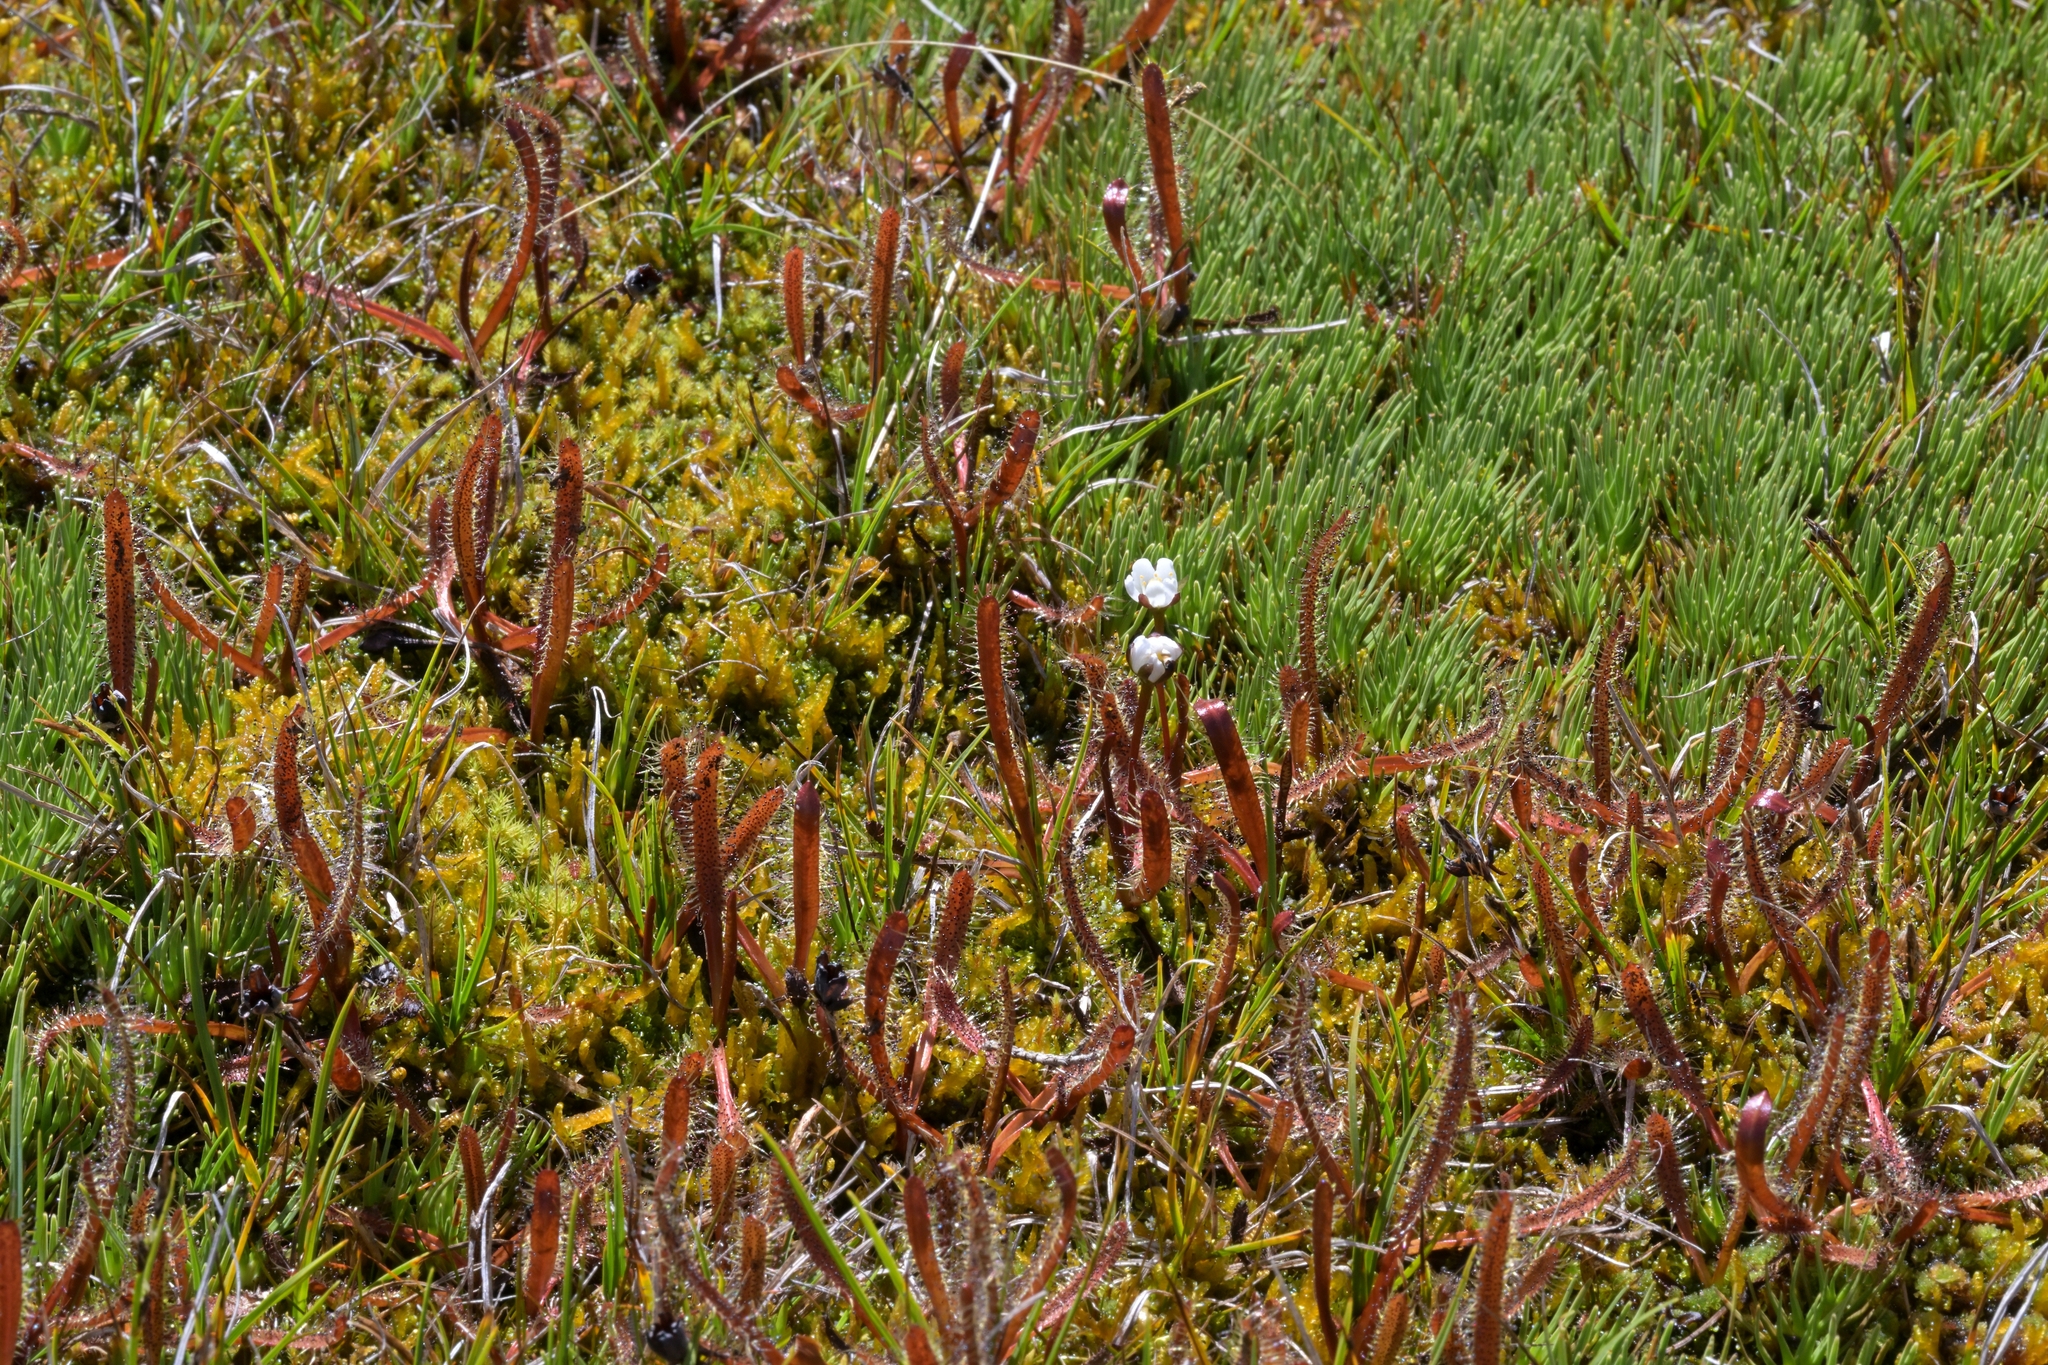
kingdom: Plantae
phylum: Tracheophyta
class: Magnoliopsida
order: Caryophyllales
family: Droseraceae
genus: Drosera
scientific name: Drosera arcturi
